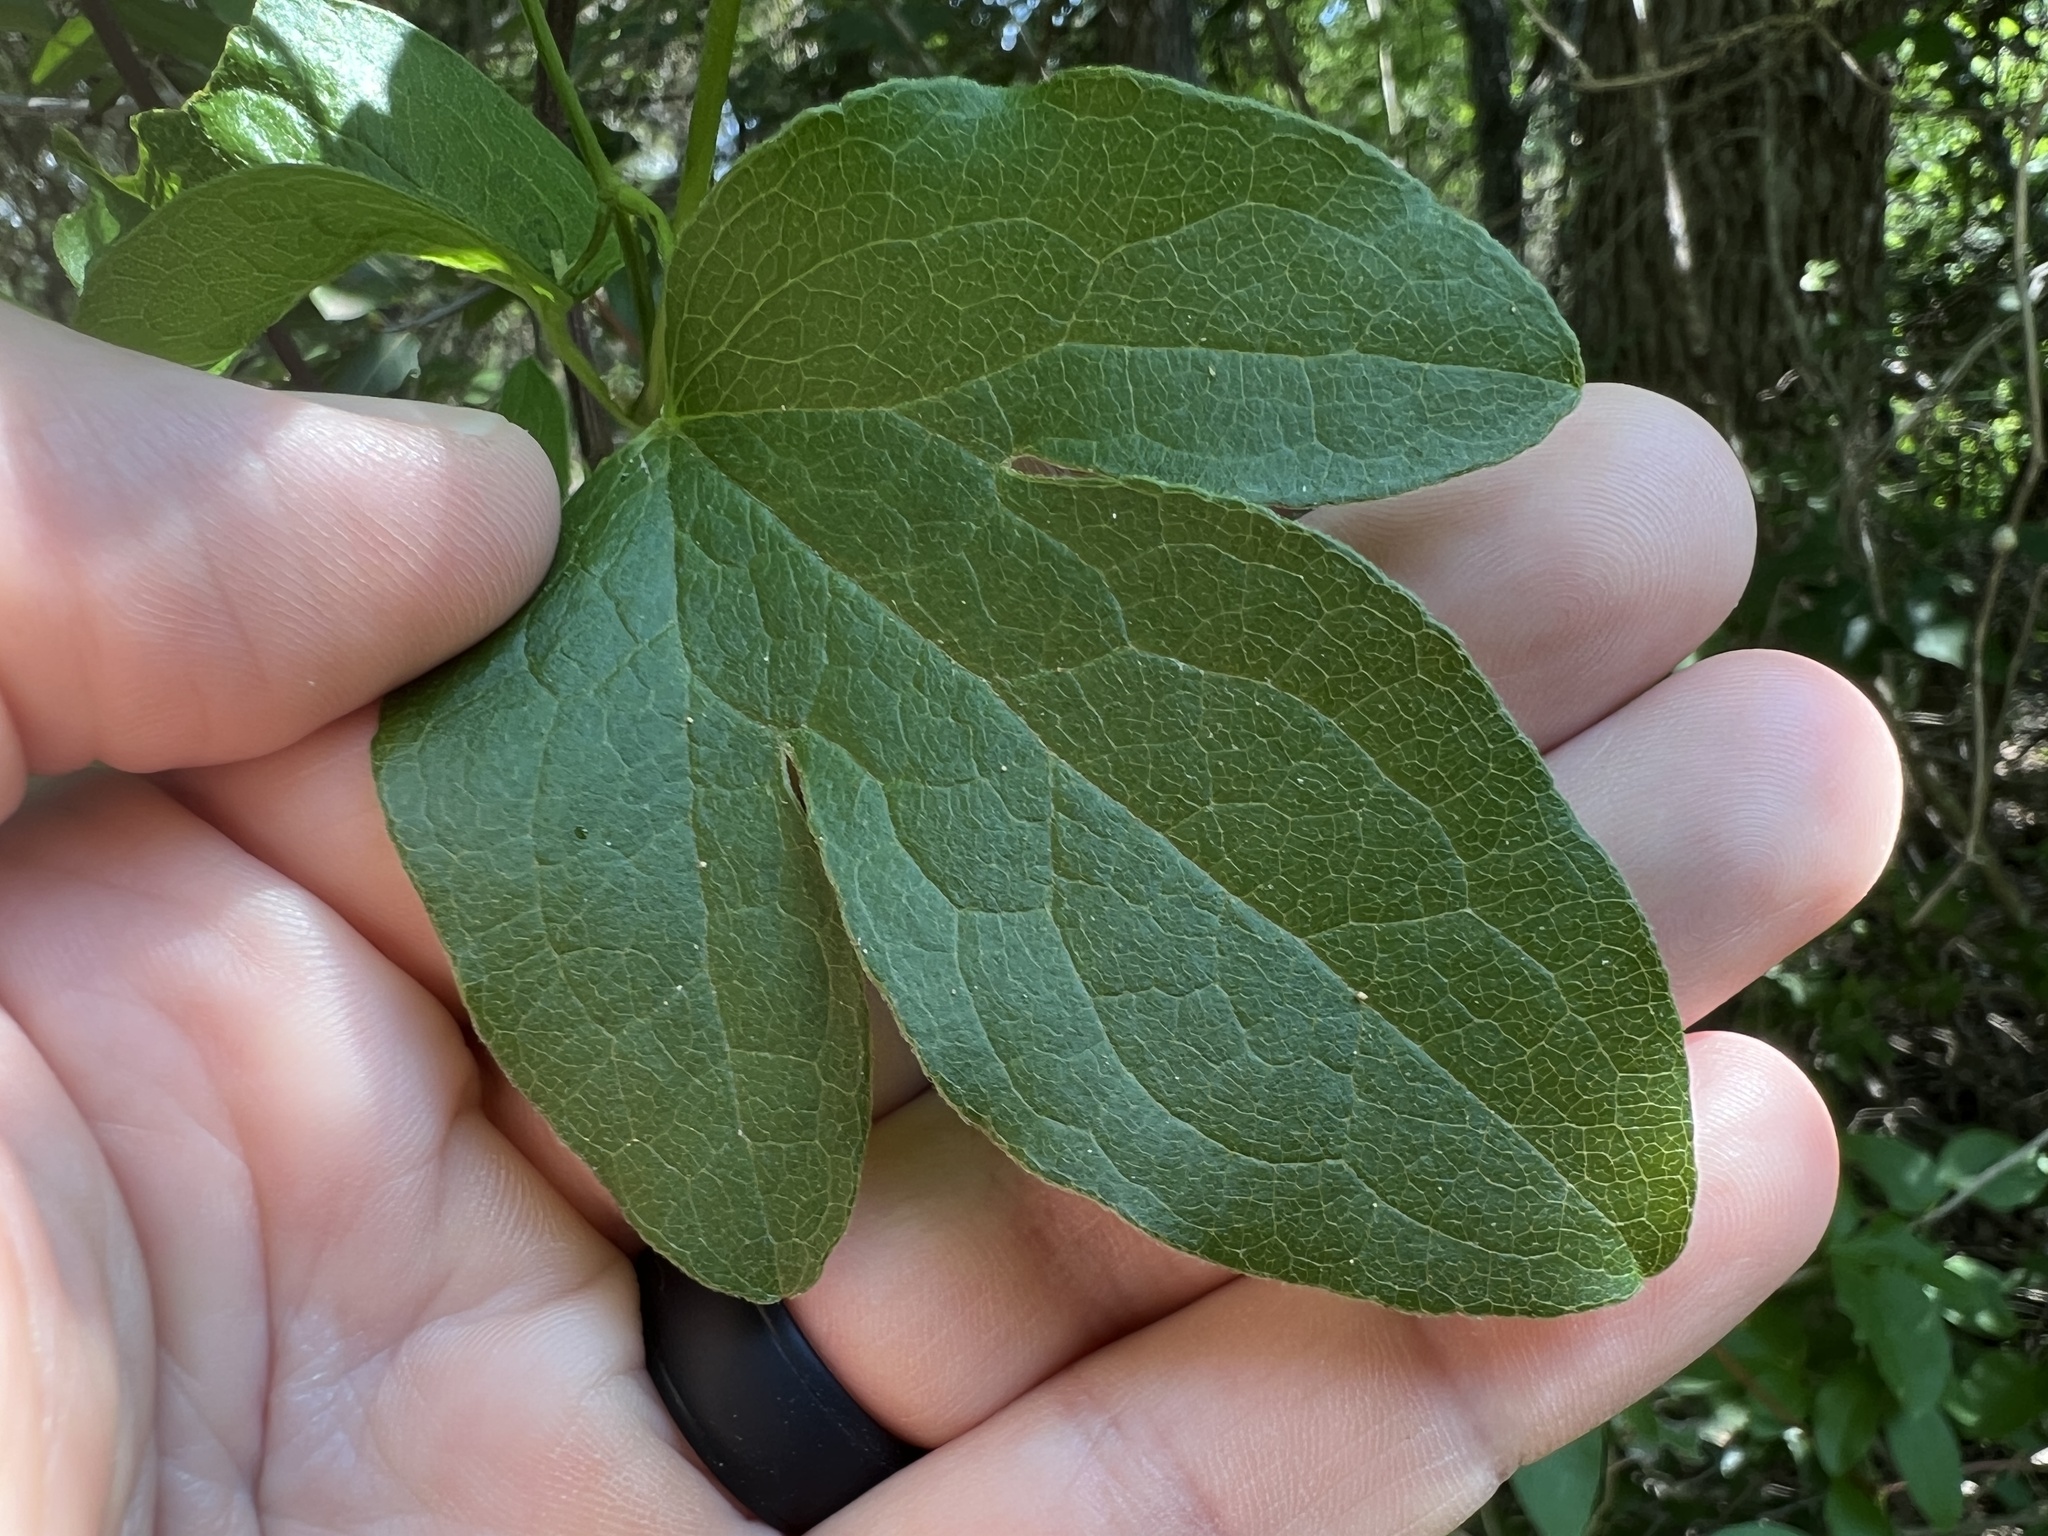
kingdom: Plantae
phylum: Tracheophyta
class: Magnoliopsida
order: Ranunculales
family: Ranunculaceae
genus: Clematis
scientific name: Clematis pitcheri
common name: Bellflower clematis
